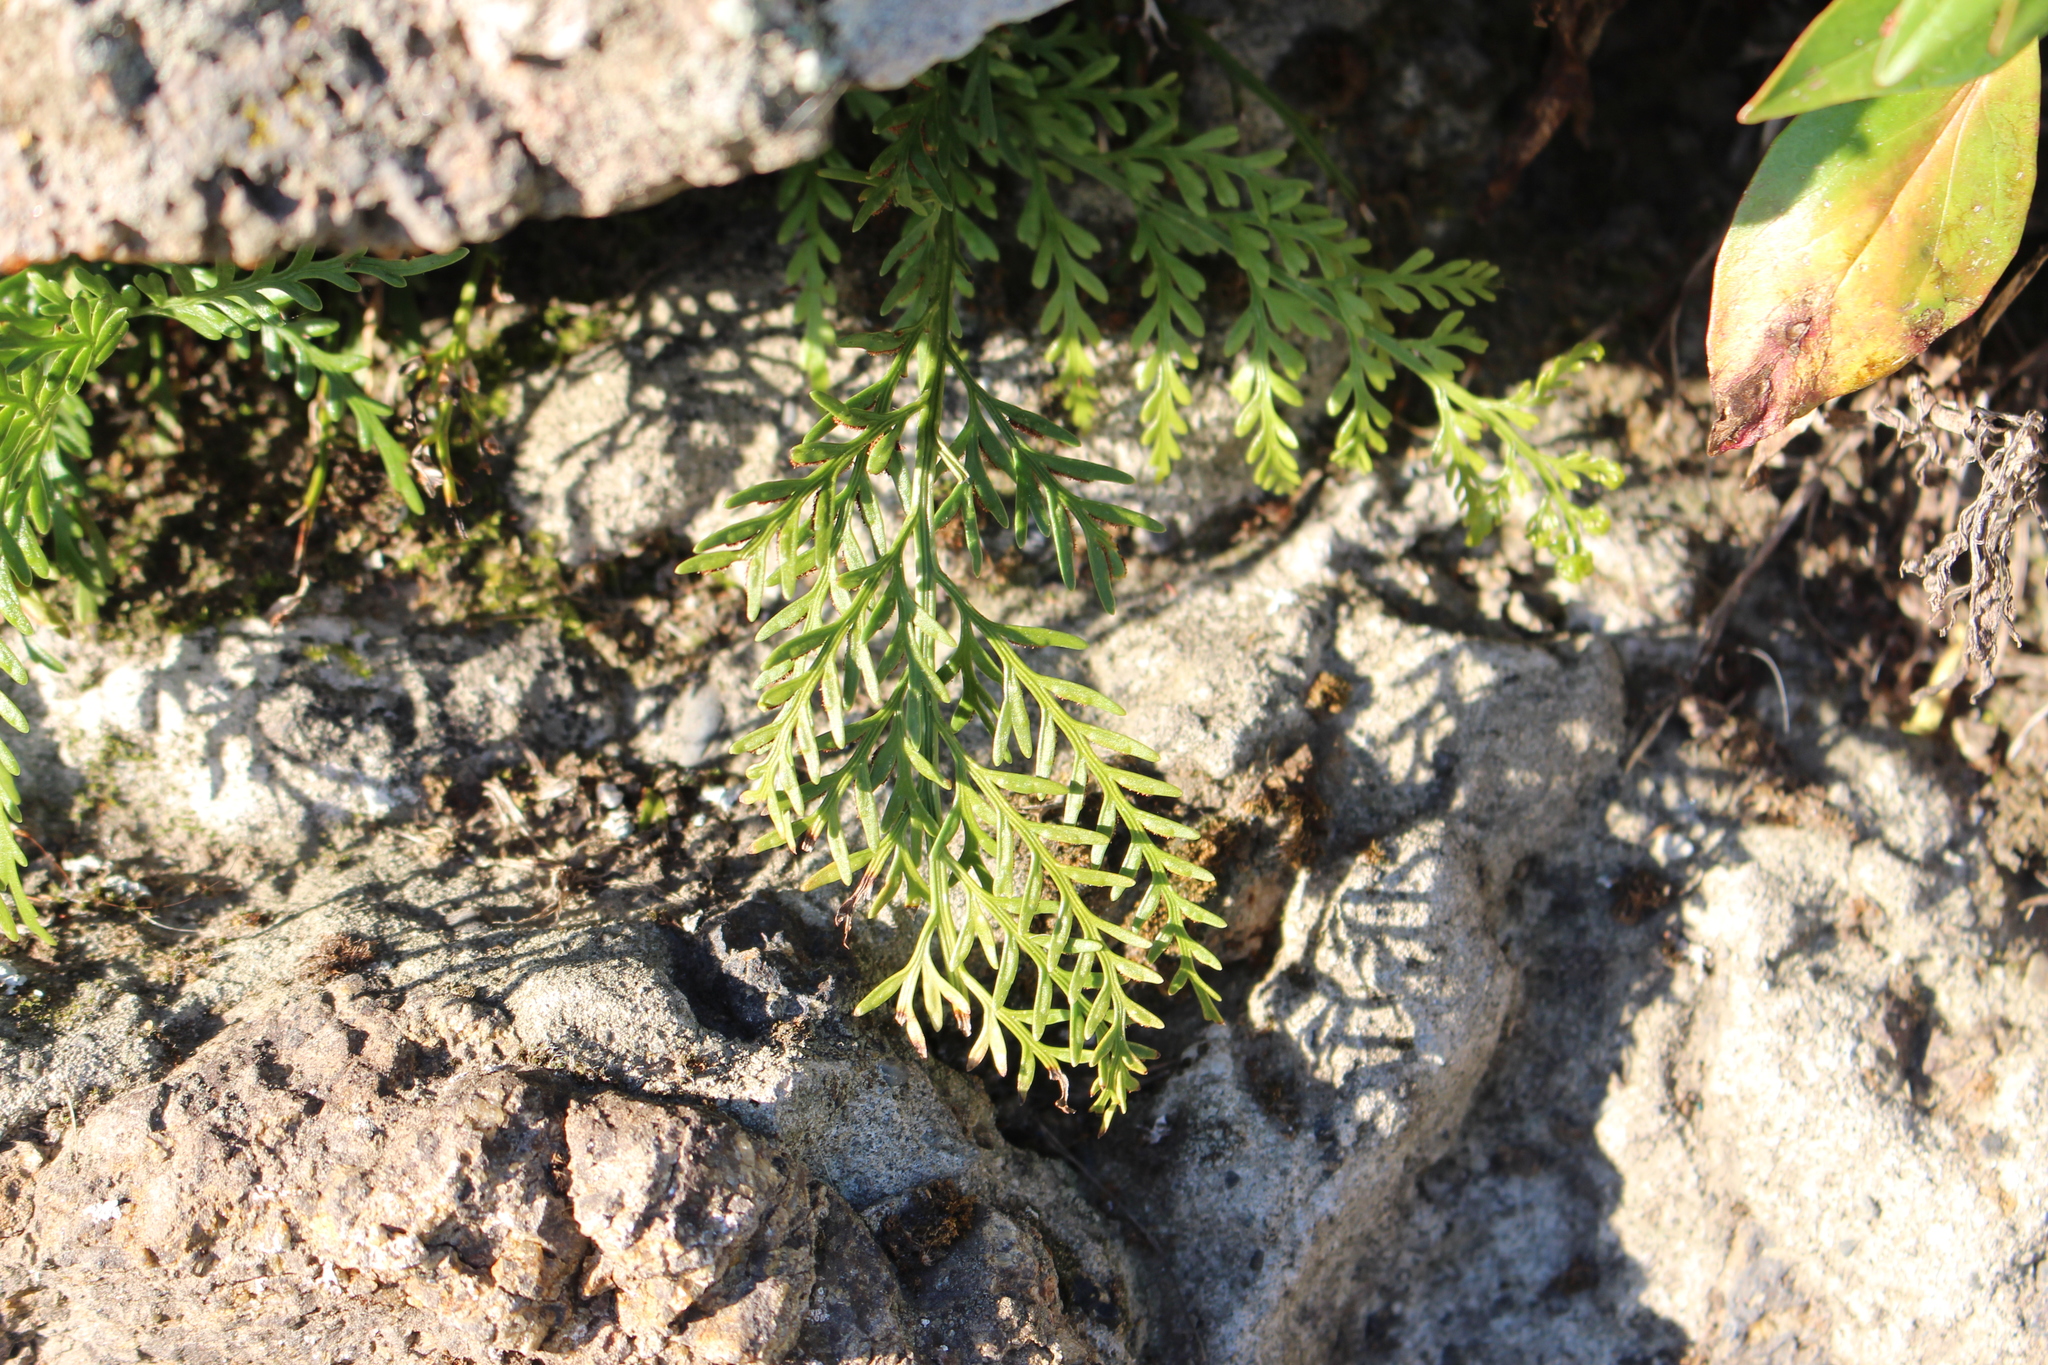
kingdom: Plantae
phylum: Tracheophyta
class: Polypodiopsida
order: Polypodiales
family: Aspleniaceae
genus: Asplenium
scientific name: Asplenium appendiculatum
